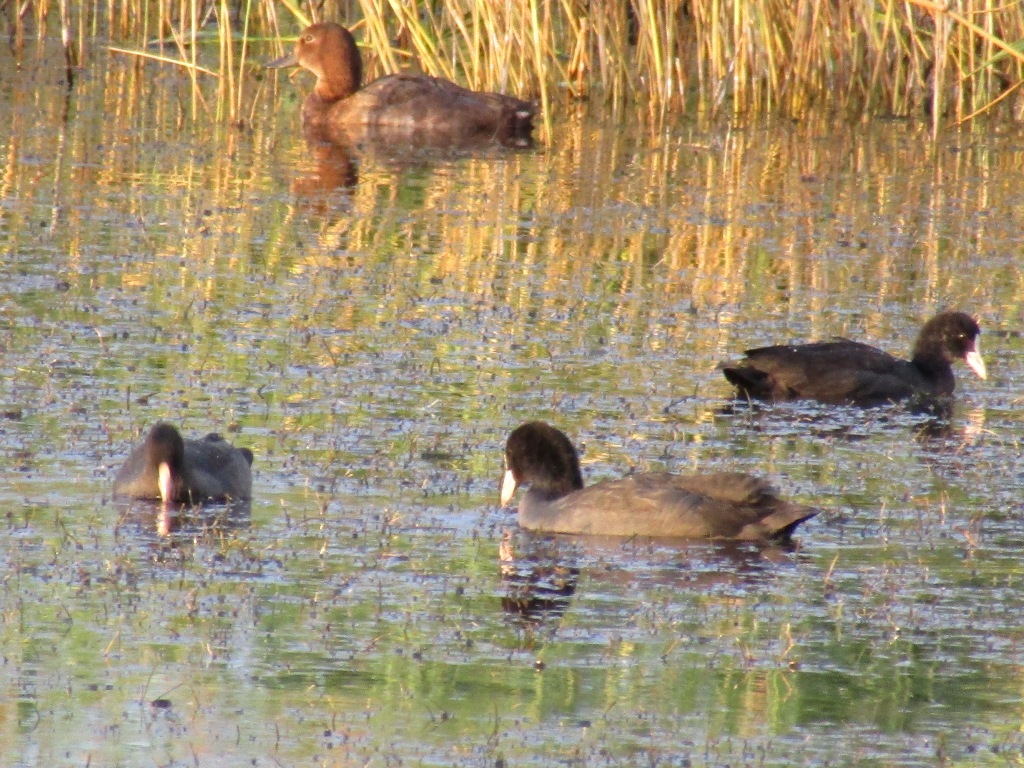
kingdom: Animalia
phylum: Chordata
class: Aves
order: Gruiformes
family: Rallidae
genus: Fulica
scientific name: Fulica atra
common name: Eurasian coot
